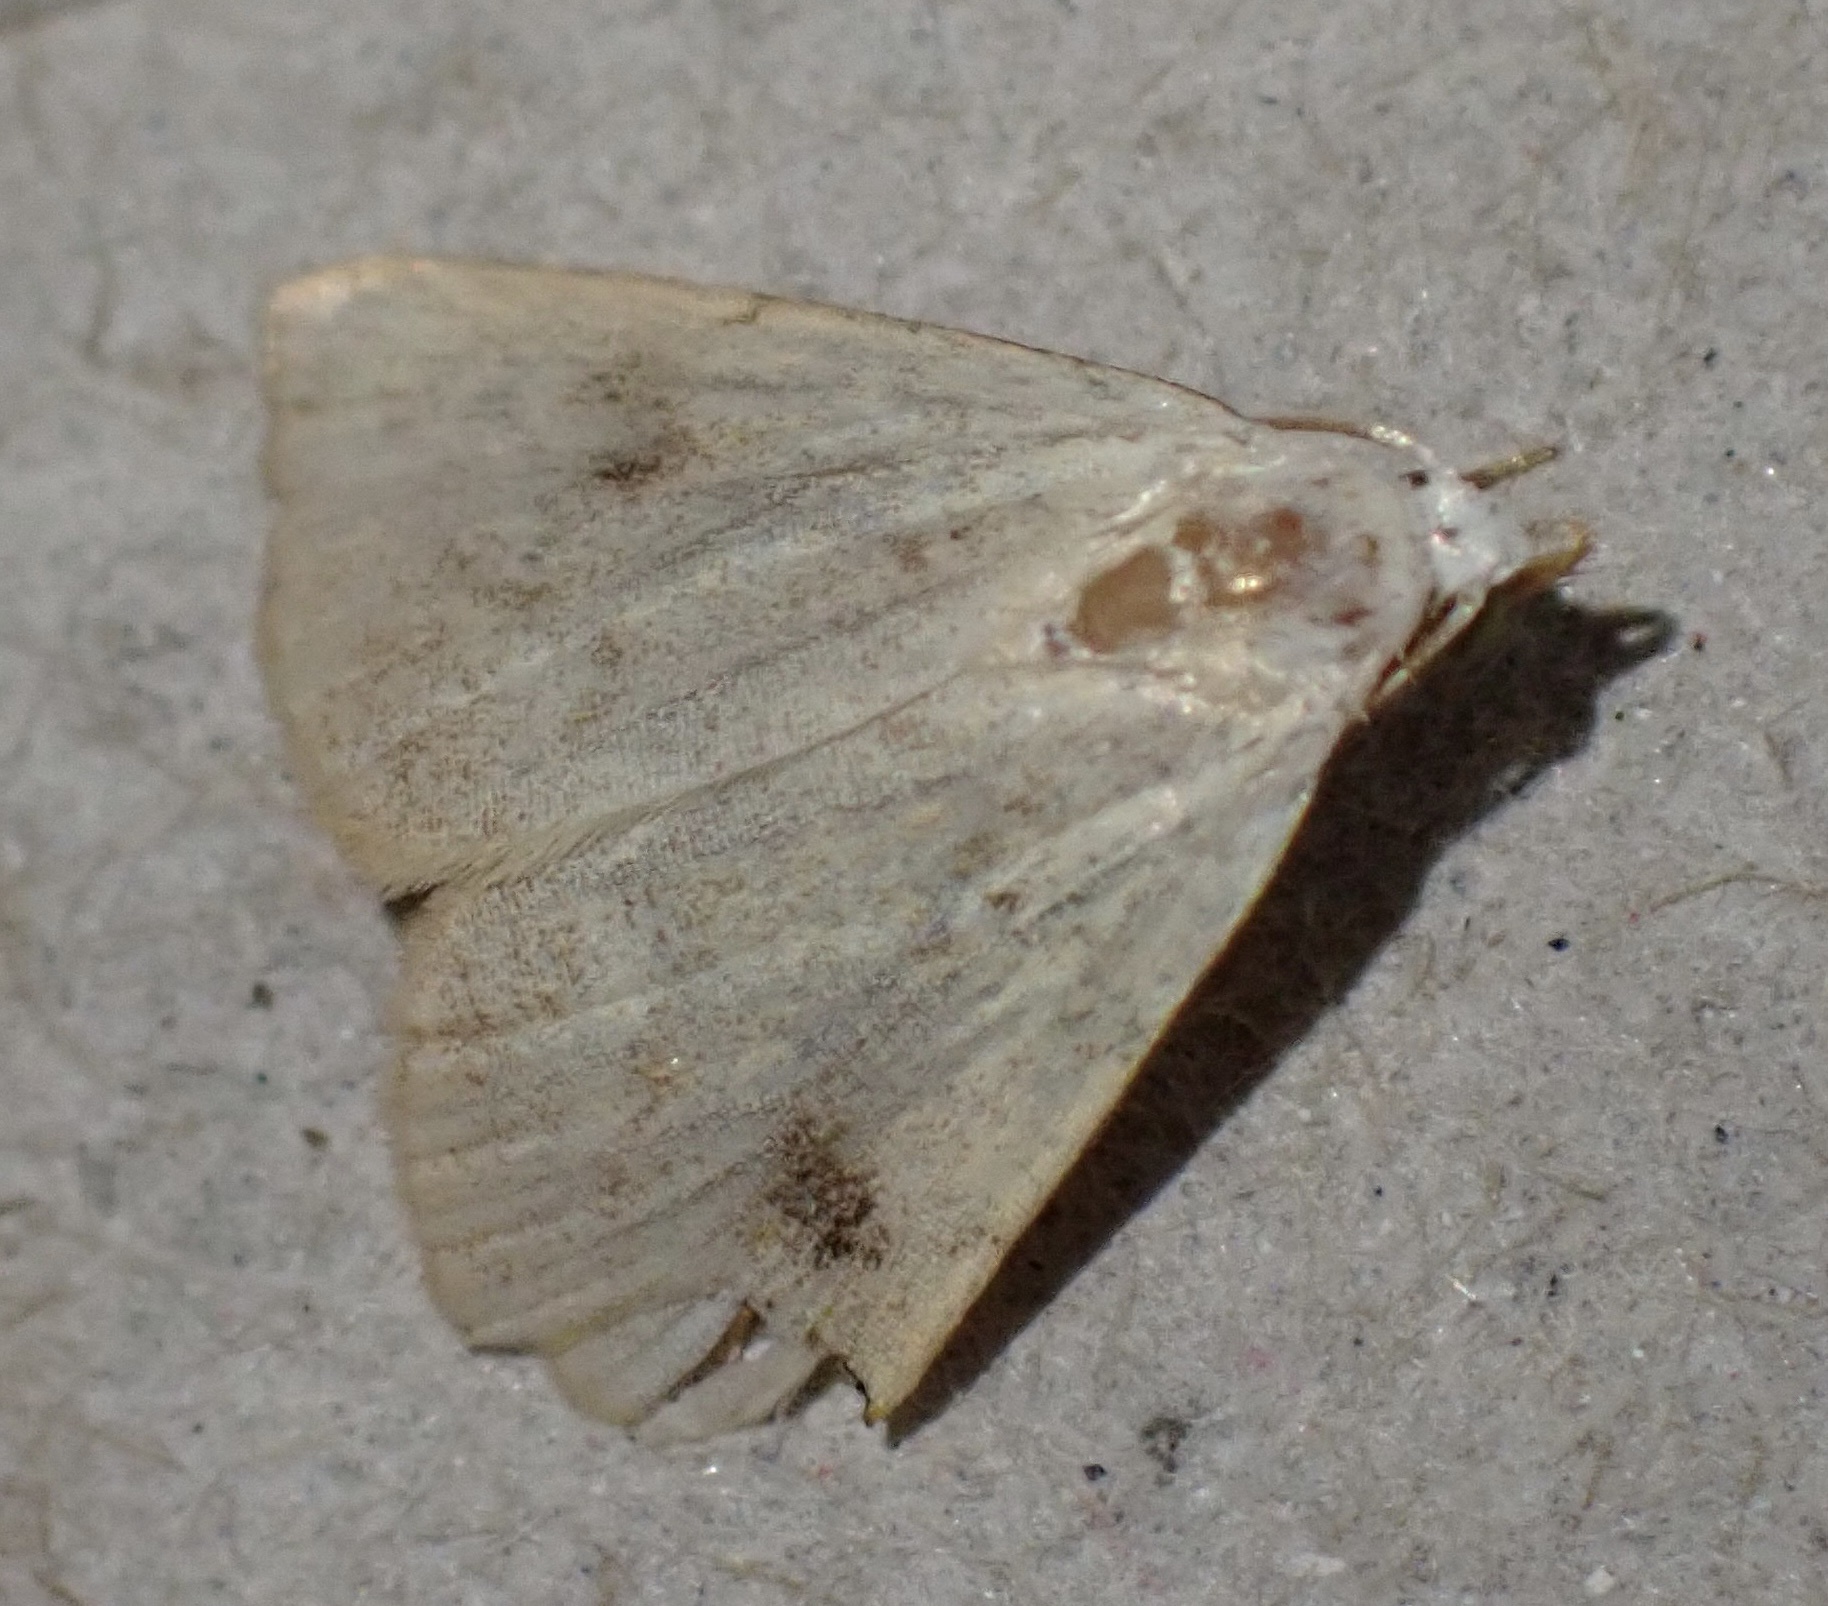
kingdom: Animalia
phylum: Arthropoda
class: Insecta
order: Lepidoptera
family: Erebidae
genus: Rivula
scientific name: Rivula sericealis
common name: Straw dot
